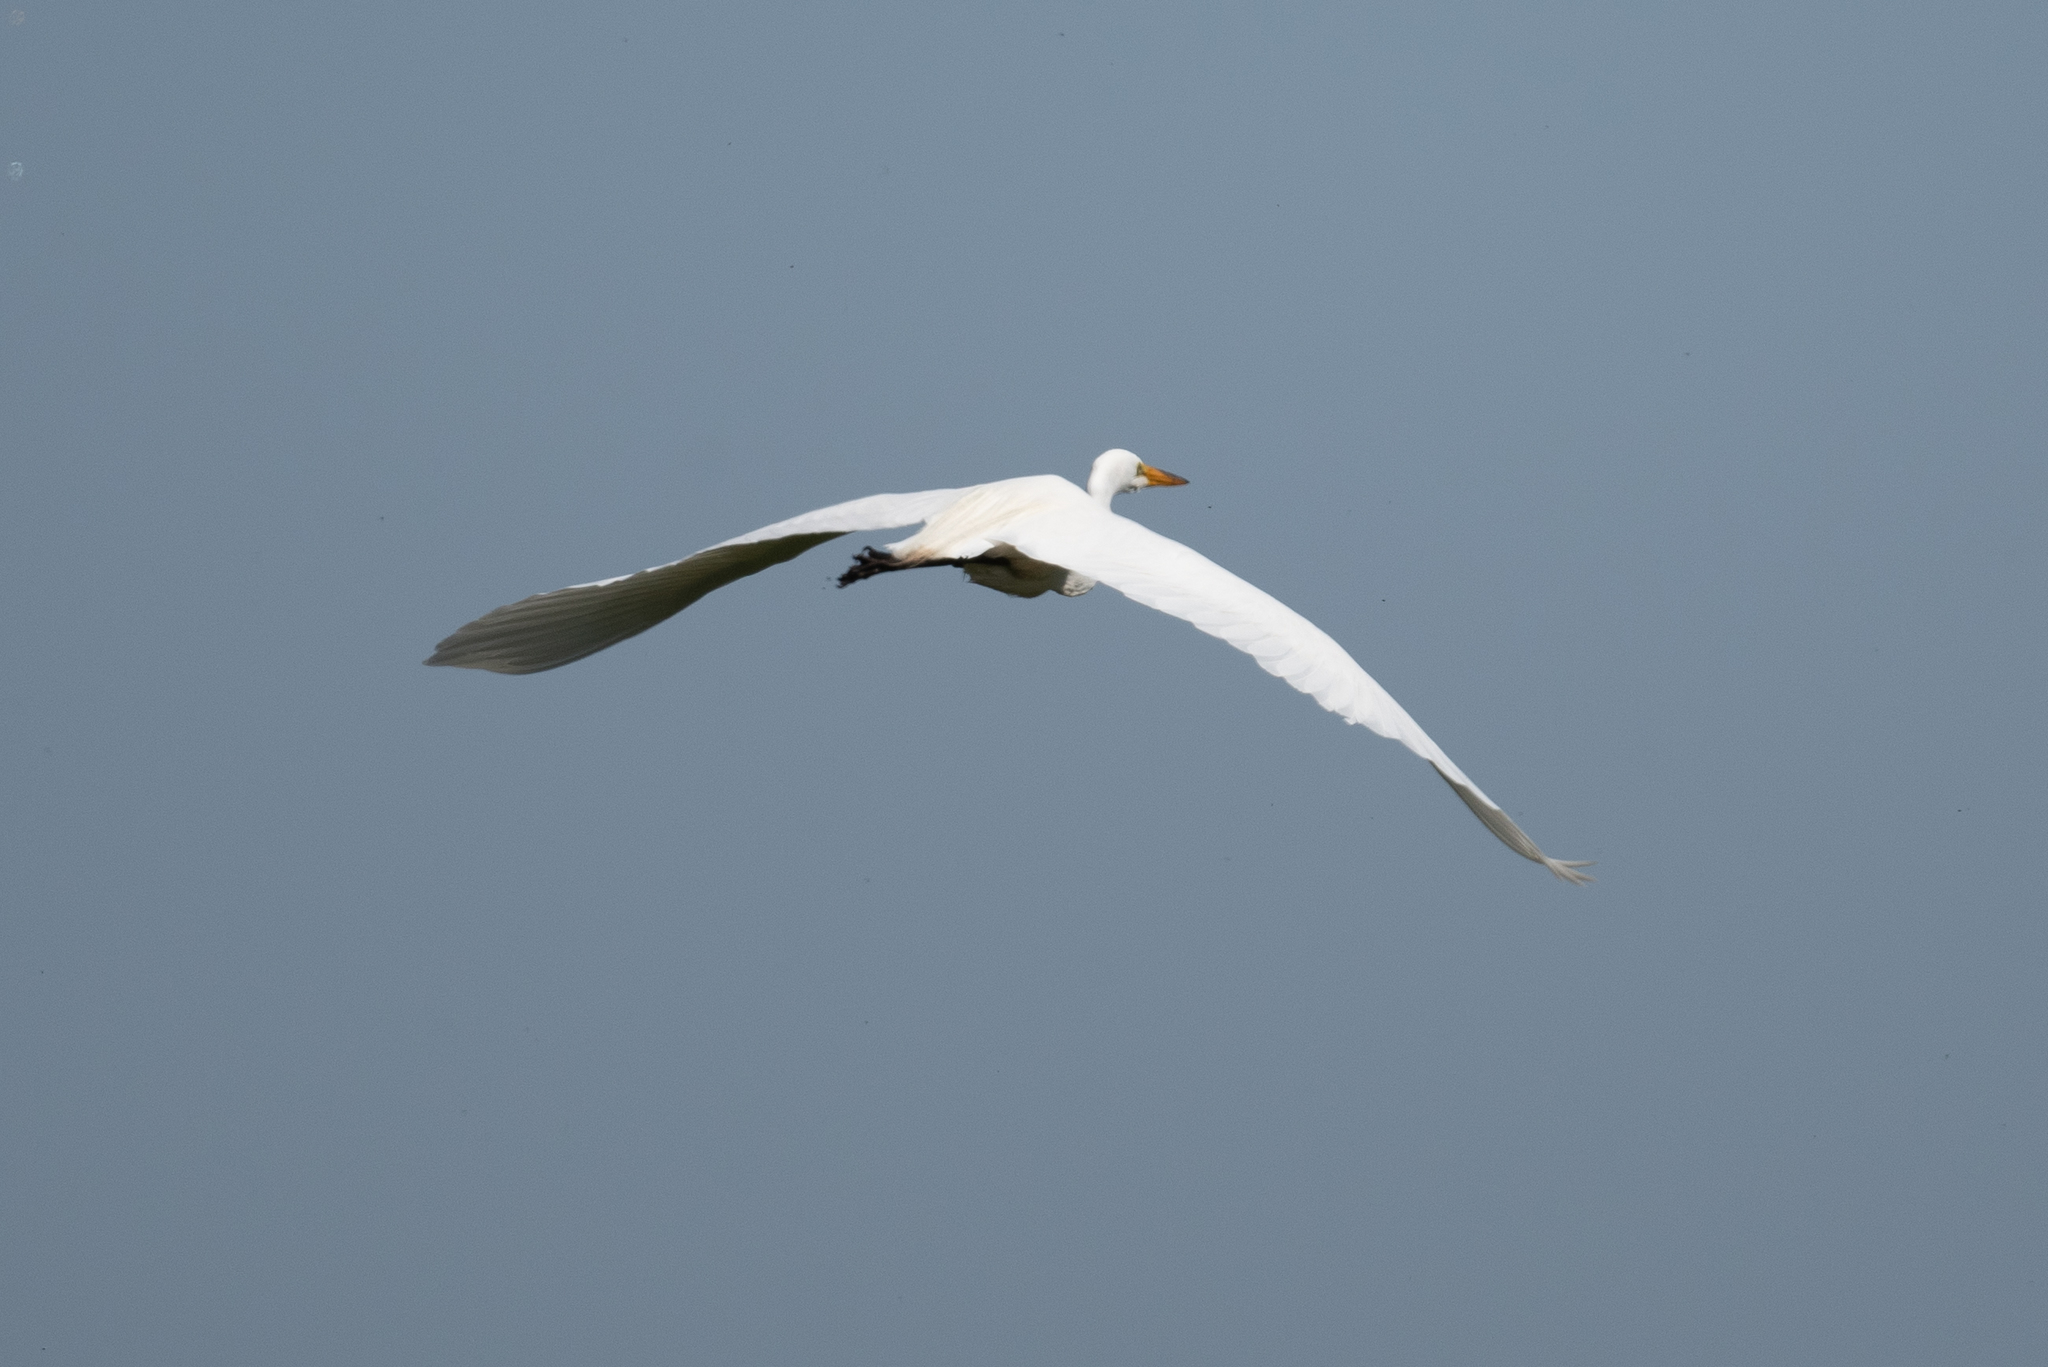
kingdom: Animalia
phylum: Chordata
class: Aves
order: Pelecaniformes
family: Ardeidae
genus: Ardea
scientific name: Ardea alba
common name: Great egret
